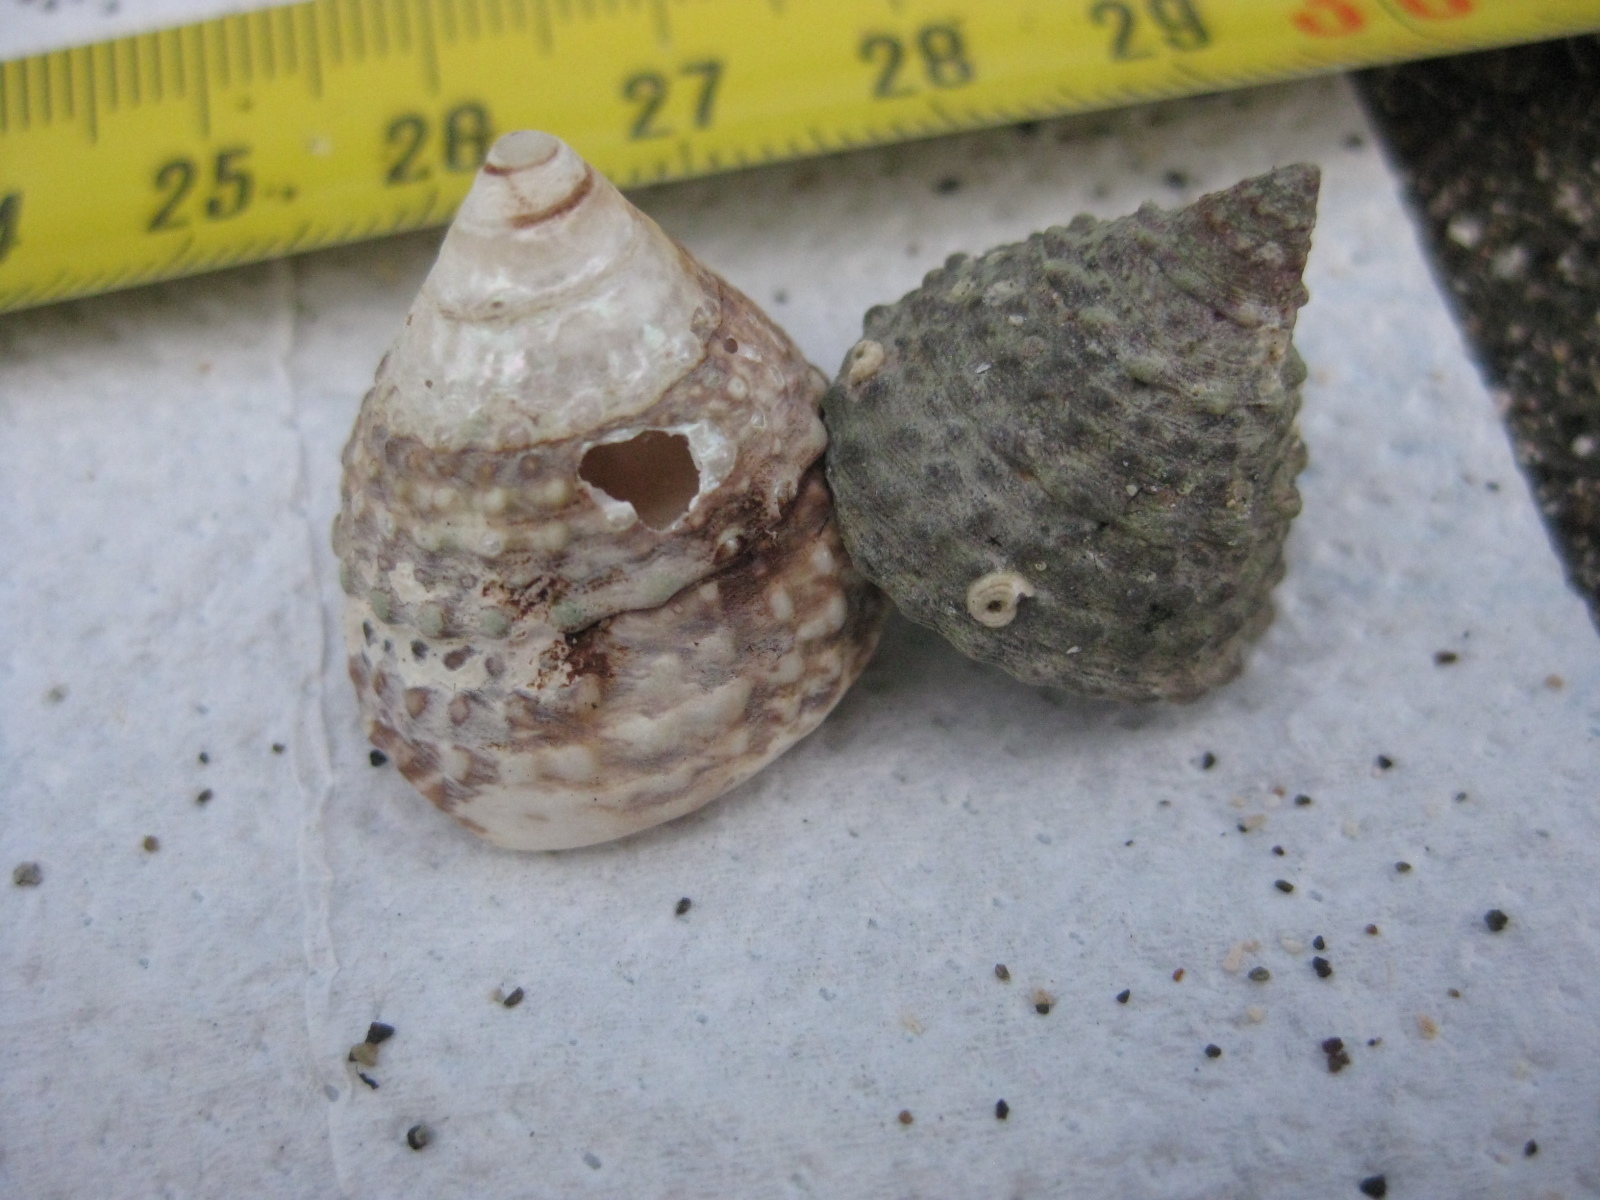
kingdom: Animalia
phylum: Mollusca
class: Gastropoda
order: Trochida
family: Trochidae
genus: Coelotrochus
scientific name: Coelotrochus viridis
